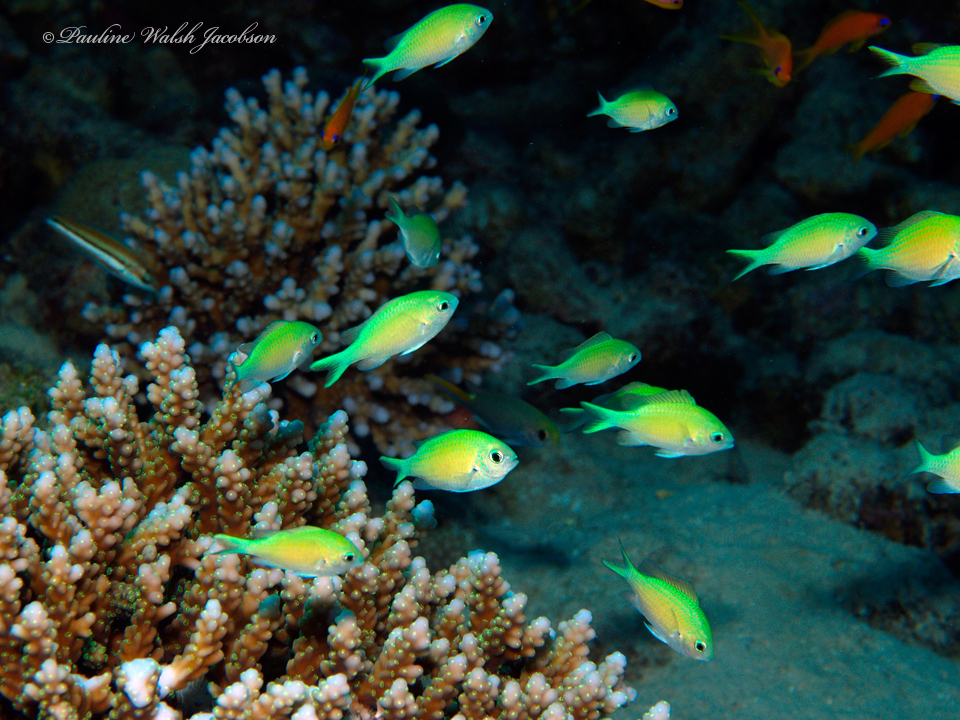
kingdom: Animalia
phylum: Chordata
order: Perciformes
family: Pomacentridae
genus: Chromis
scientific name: Chromis viridis
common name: Blue-green chromis
